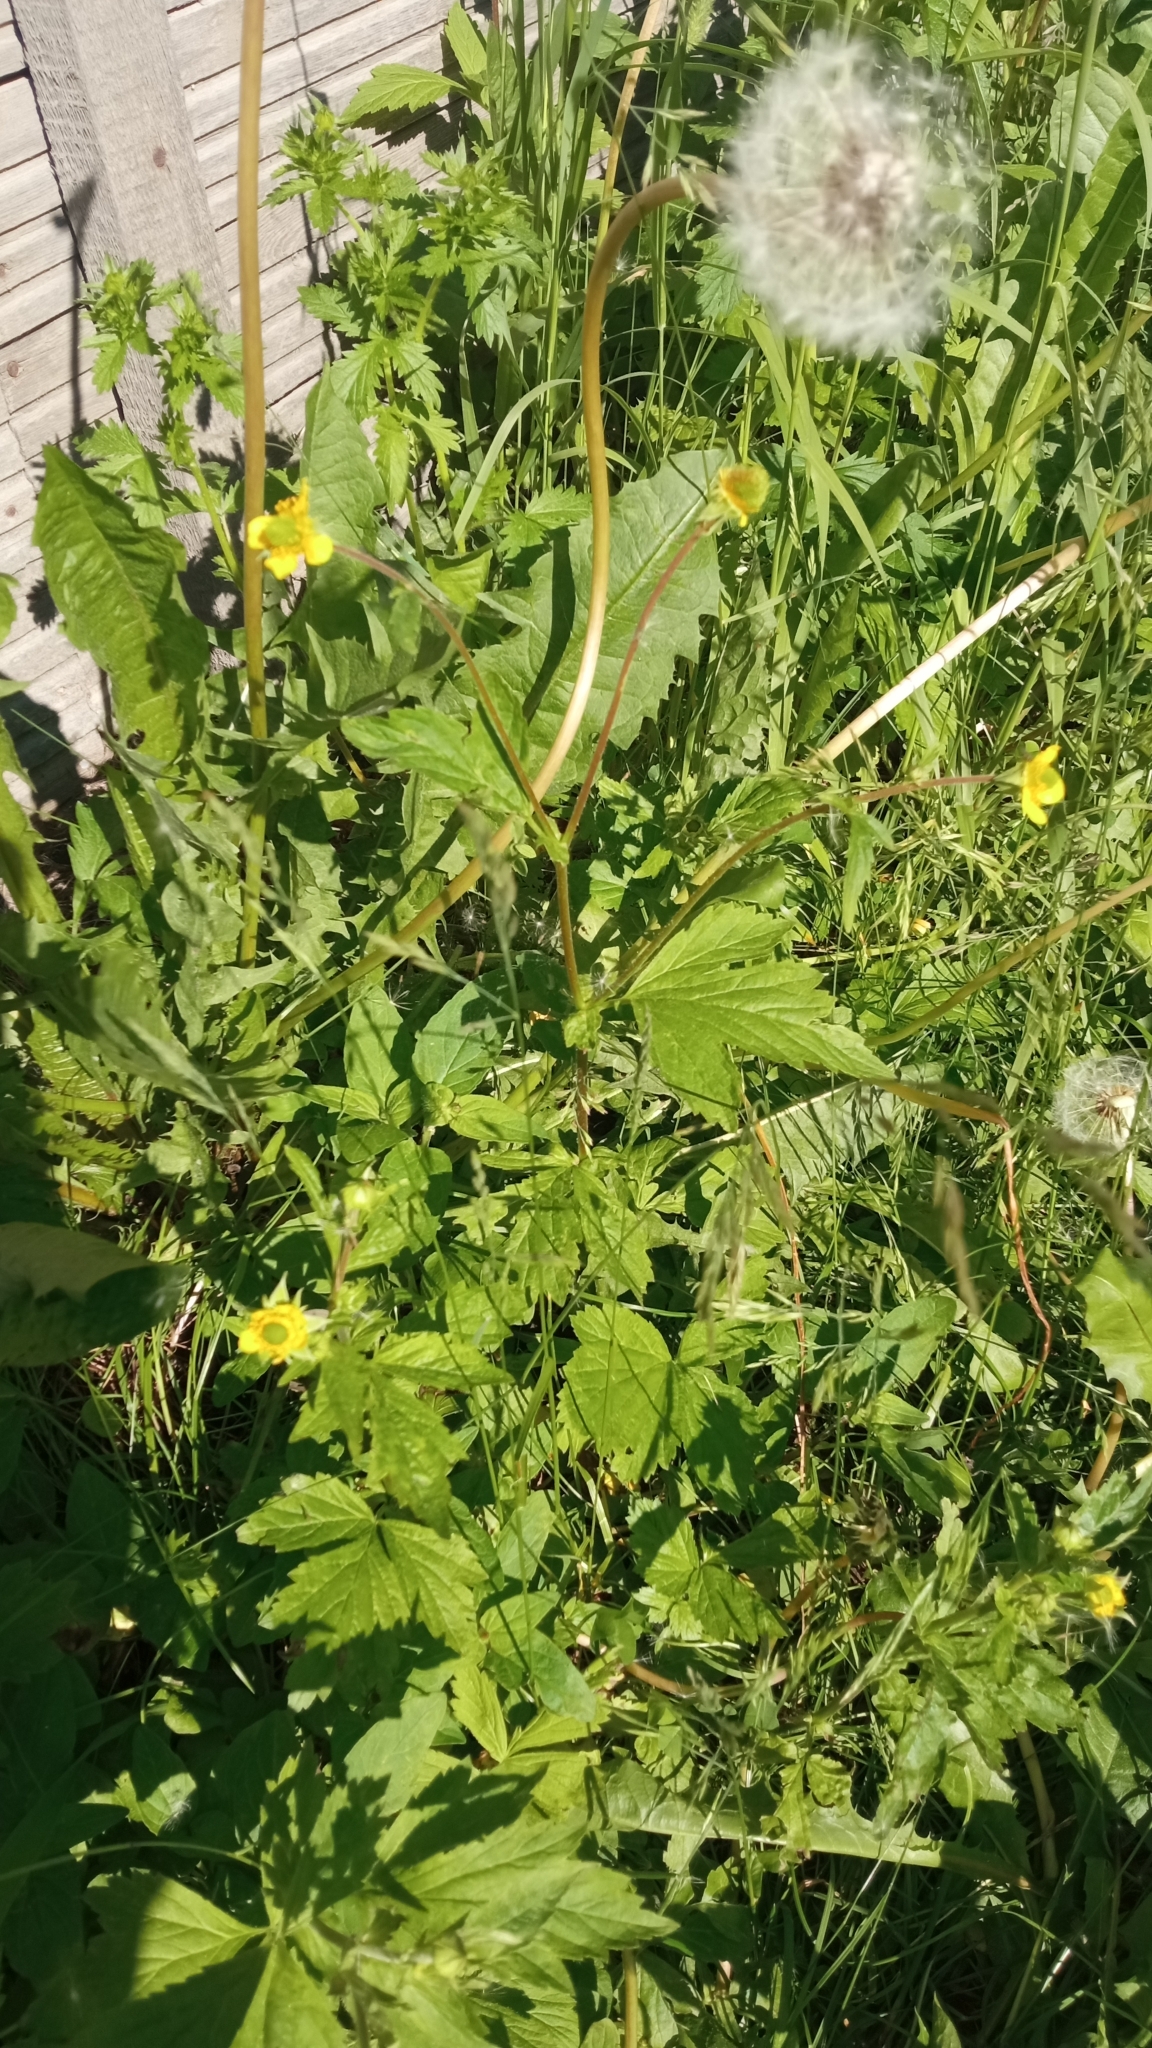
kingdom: Plantae
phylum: Tracheophyta
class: Magnoliopsida
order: Rosales
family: Rosaceae
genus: Geum
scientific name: Geum aleppicum
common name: Yellow avens
